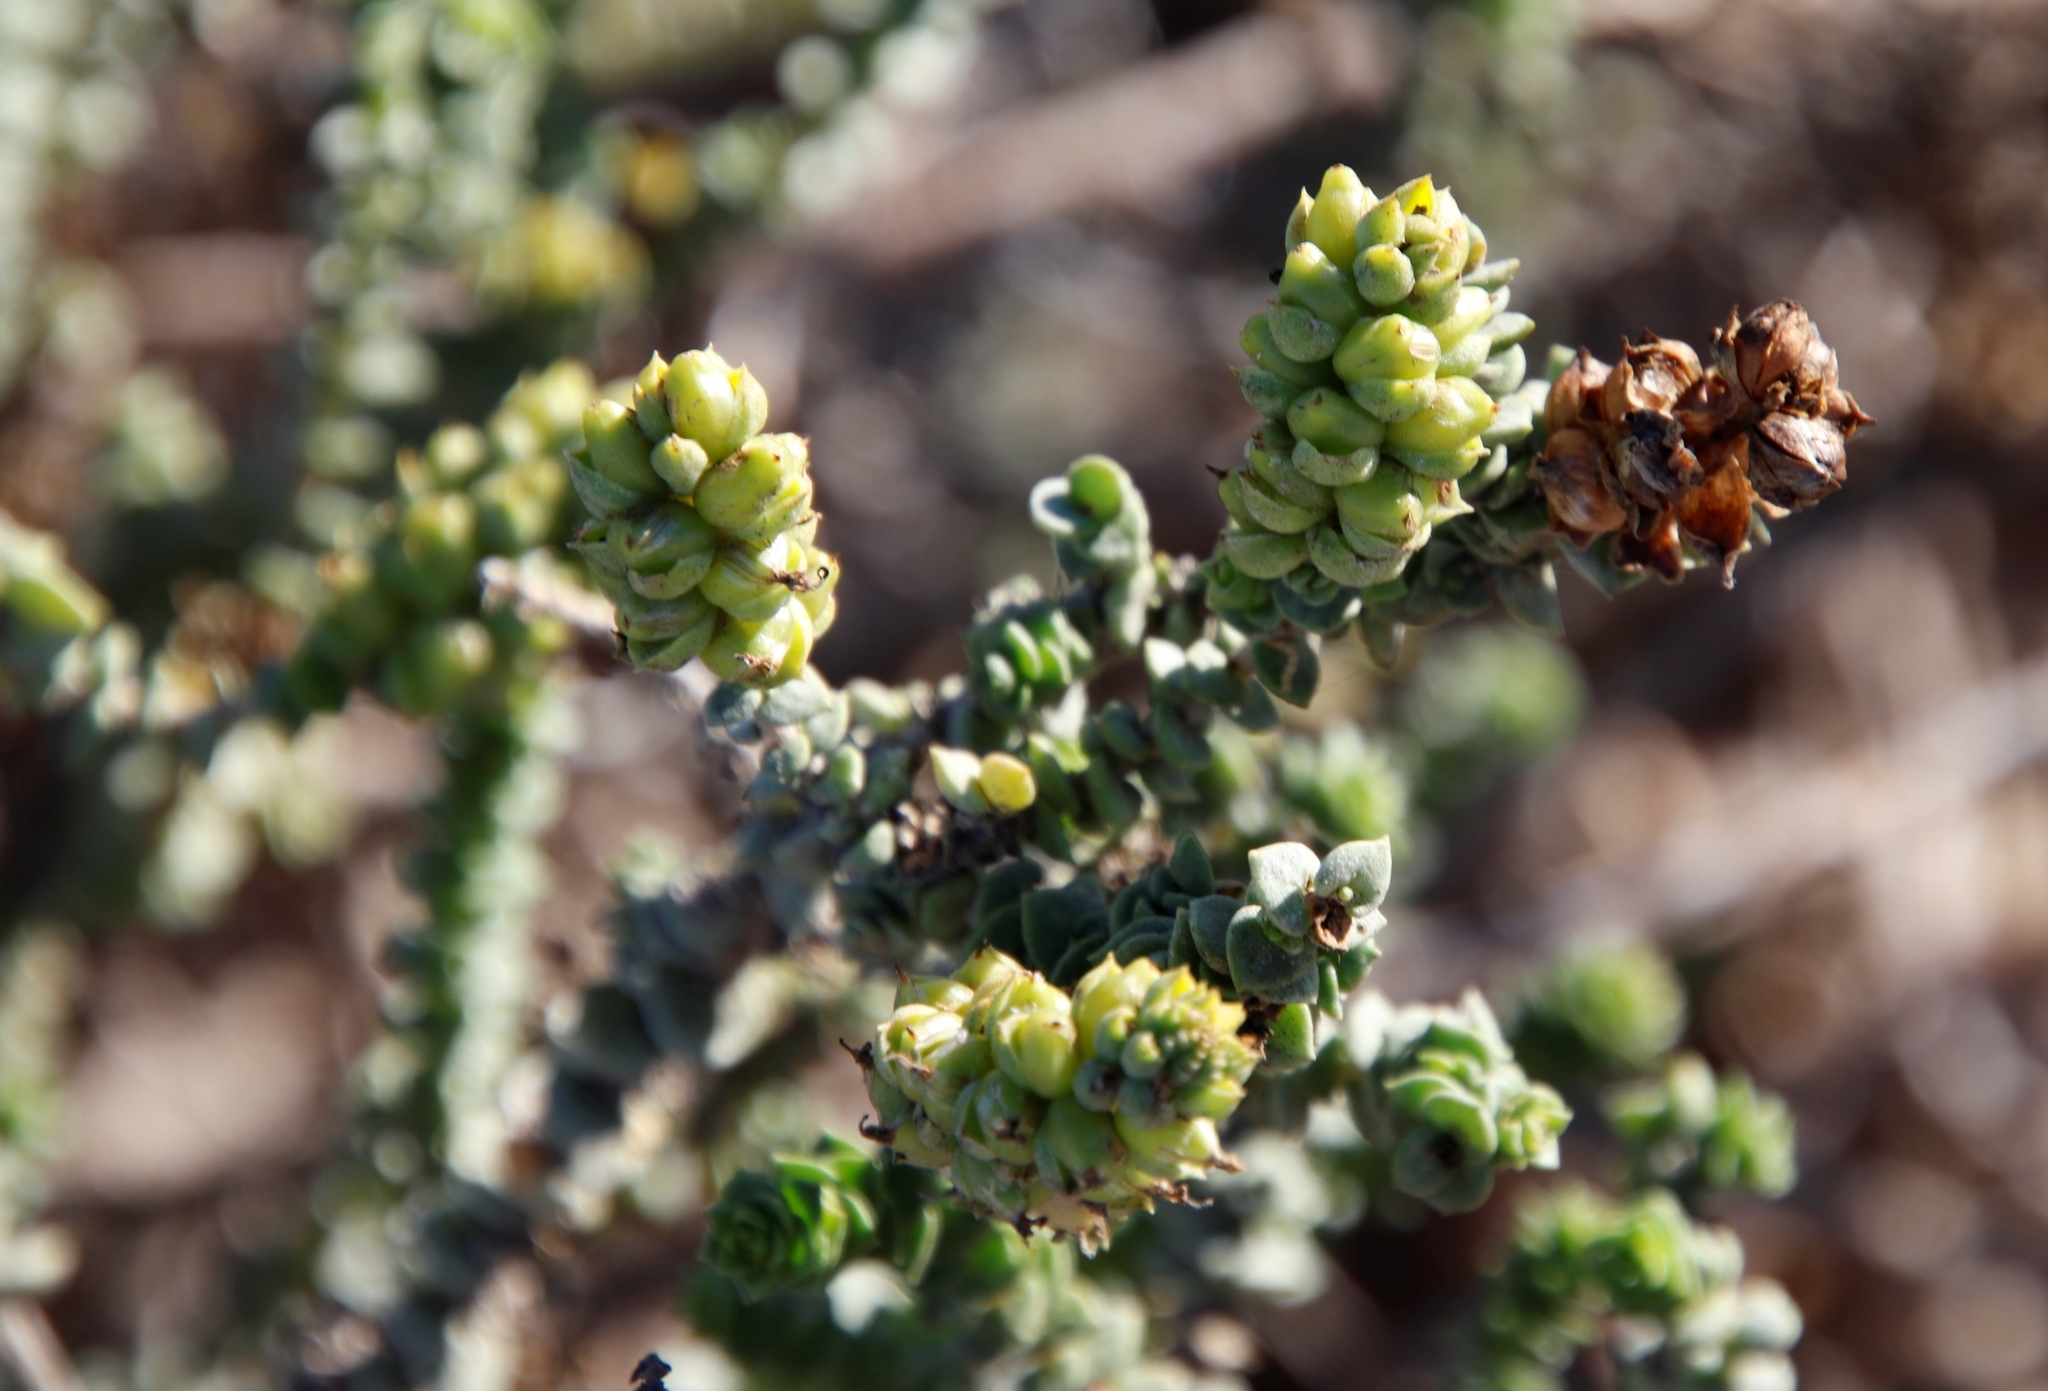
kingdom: Plantae
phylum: Tracheophyta
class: Magnoliopsida
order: Lamiales
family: Scrophulariaceae
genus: Hebenstretia
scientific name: Hebenstretia cordata
